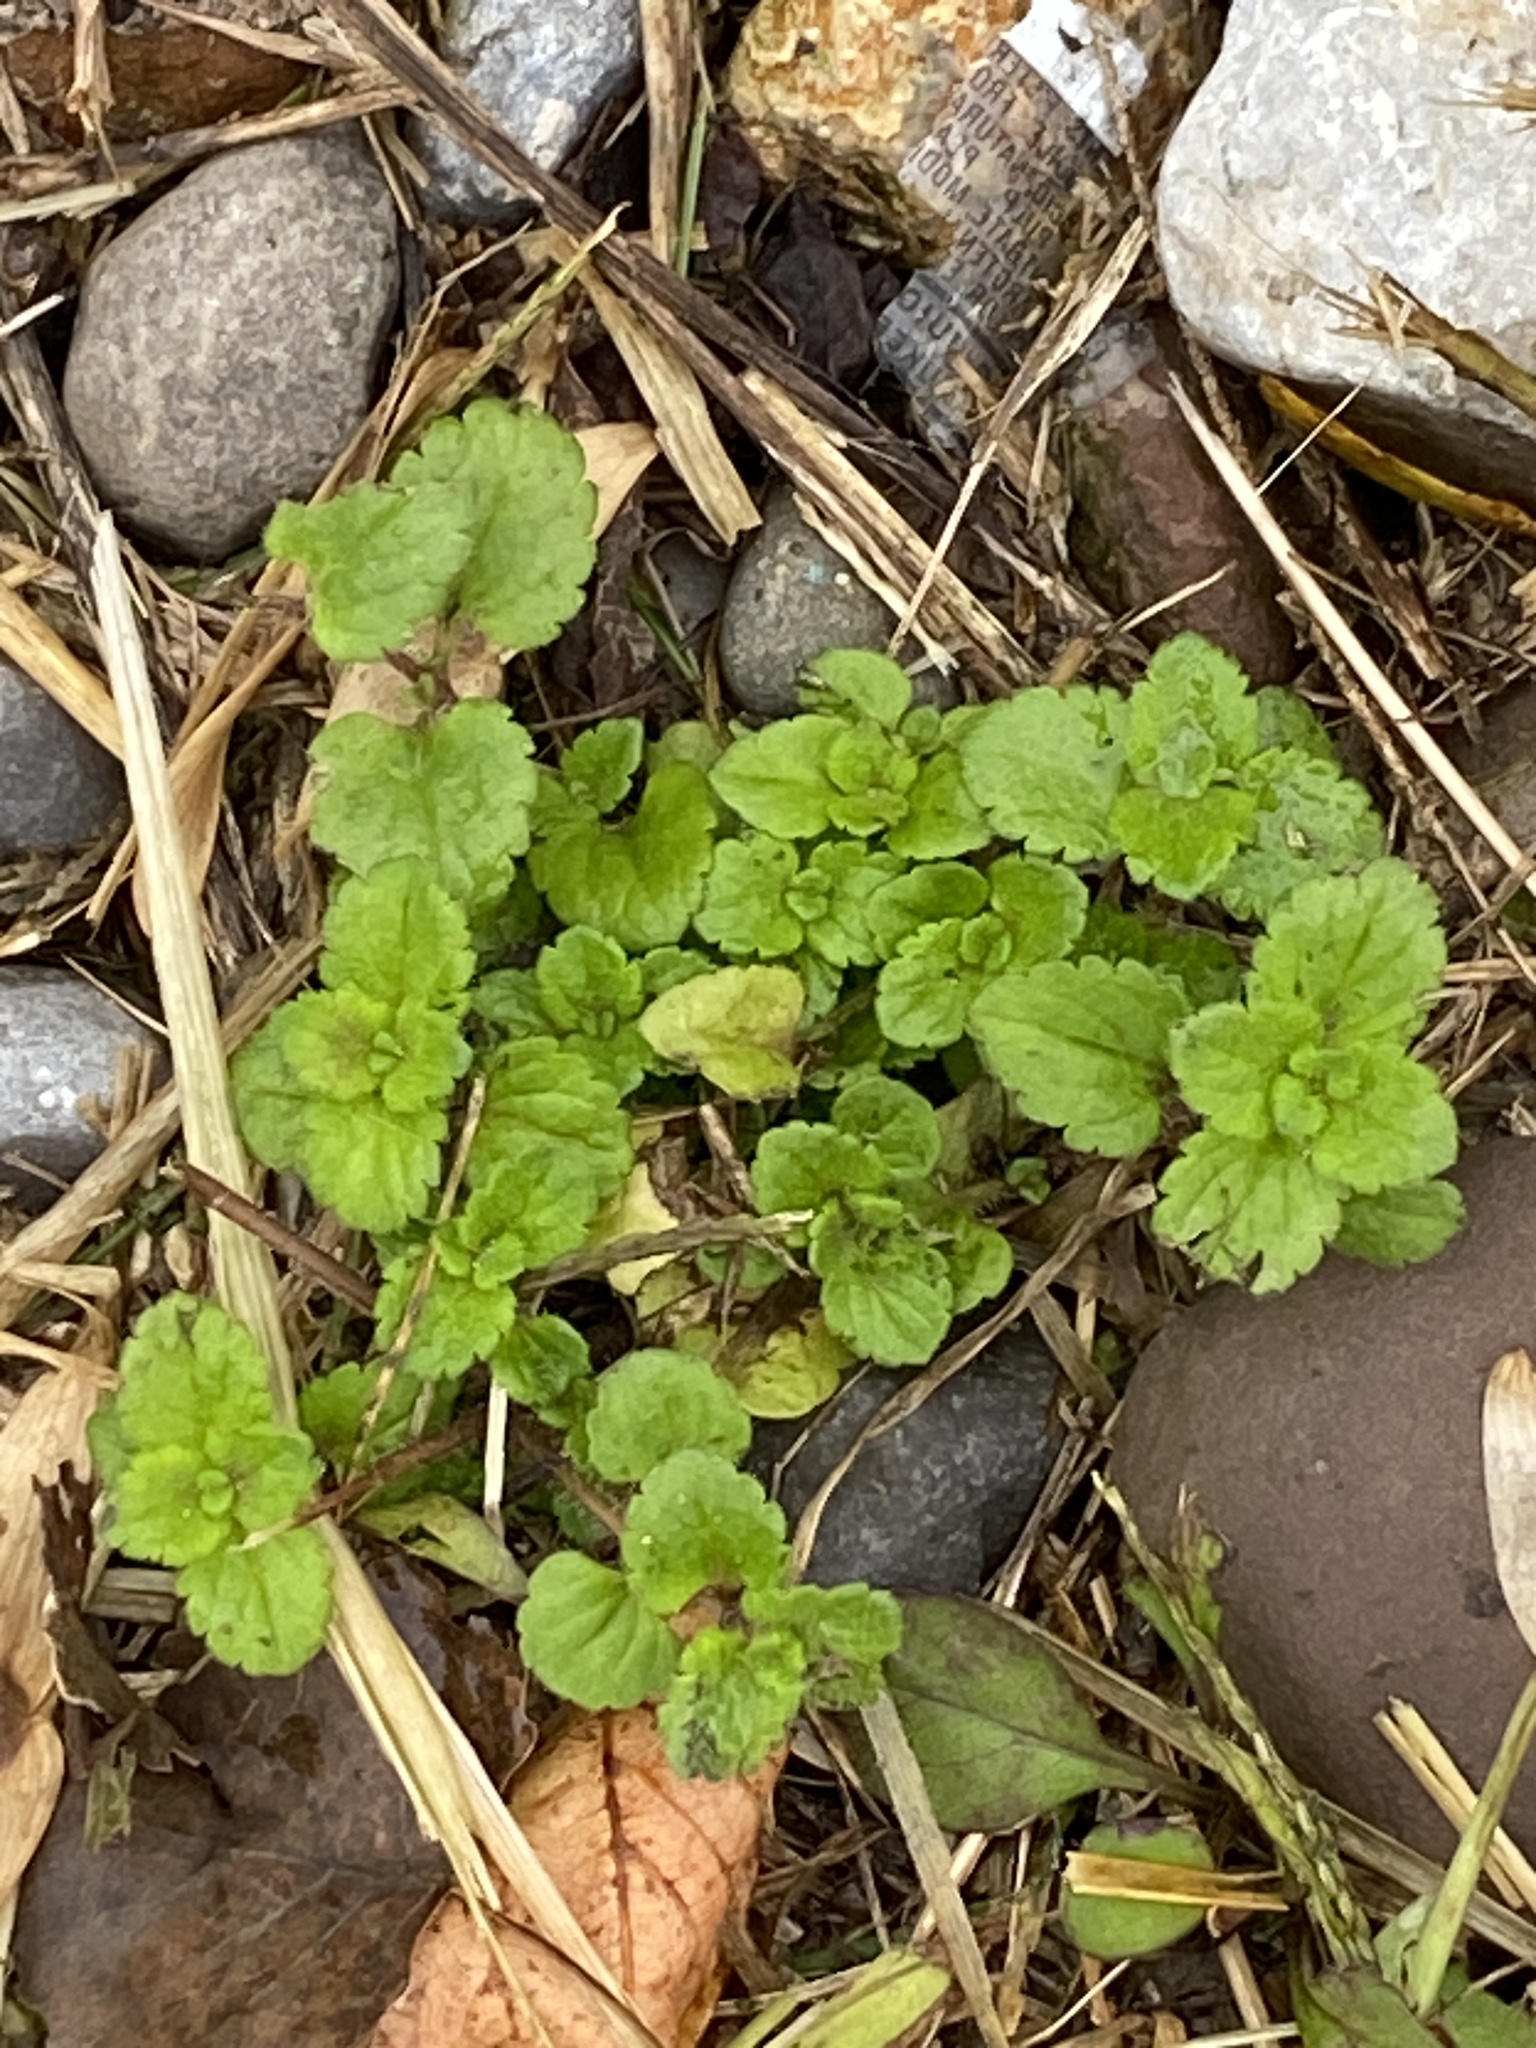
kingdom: Plantae
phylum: Tracheophyta
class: Magnoliopsida
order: Lamiales
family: Plantaginaceae
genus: Veronica
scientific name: Veronica persica
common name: Common field-speedwell
